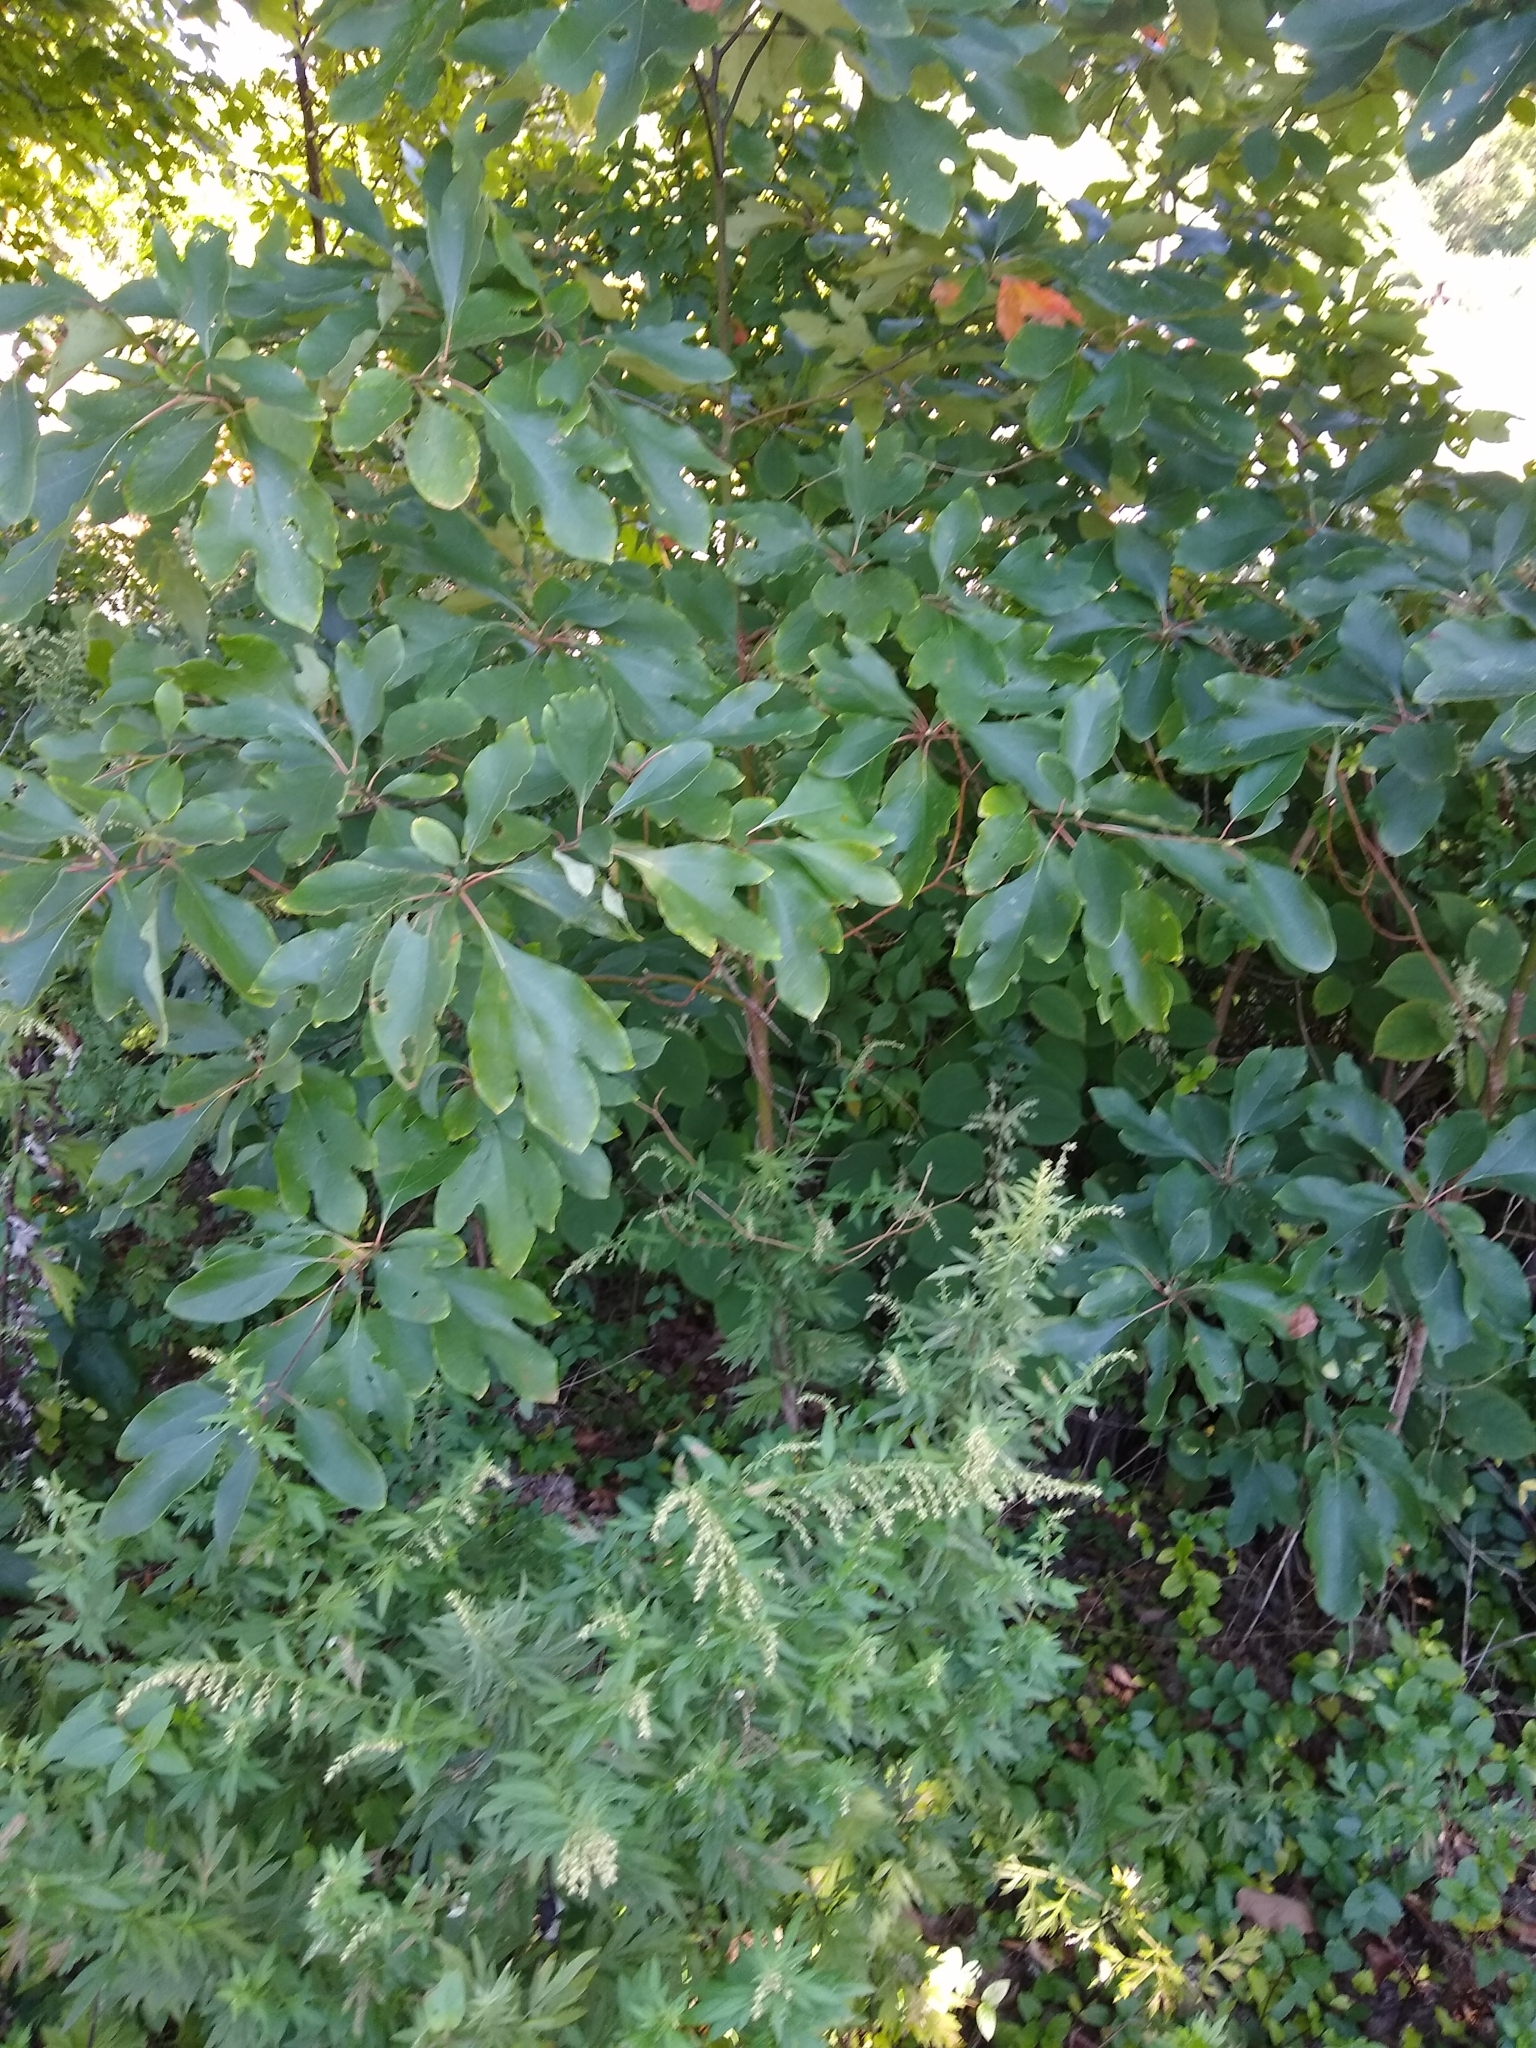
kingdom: Plantae
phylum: Tracheophyta
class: Magnoliopsida
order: Laurales
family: Lauraceae
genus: Sassafras
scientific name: Sassafras albidum
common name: Sassafras
